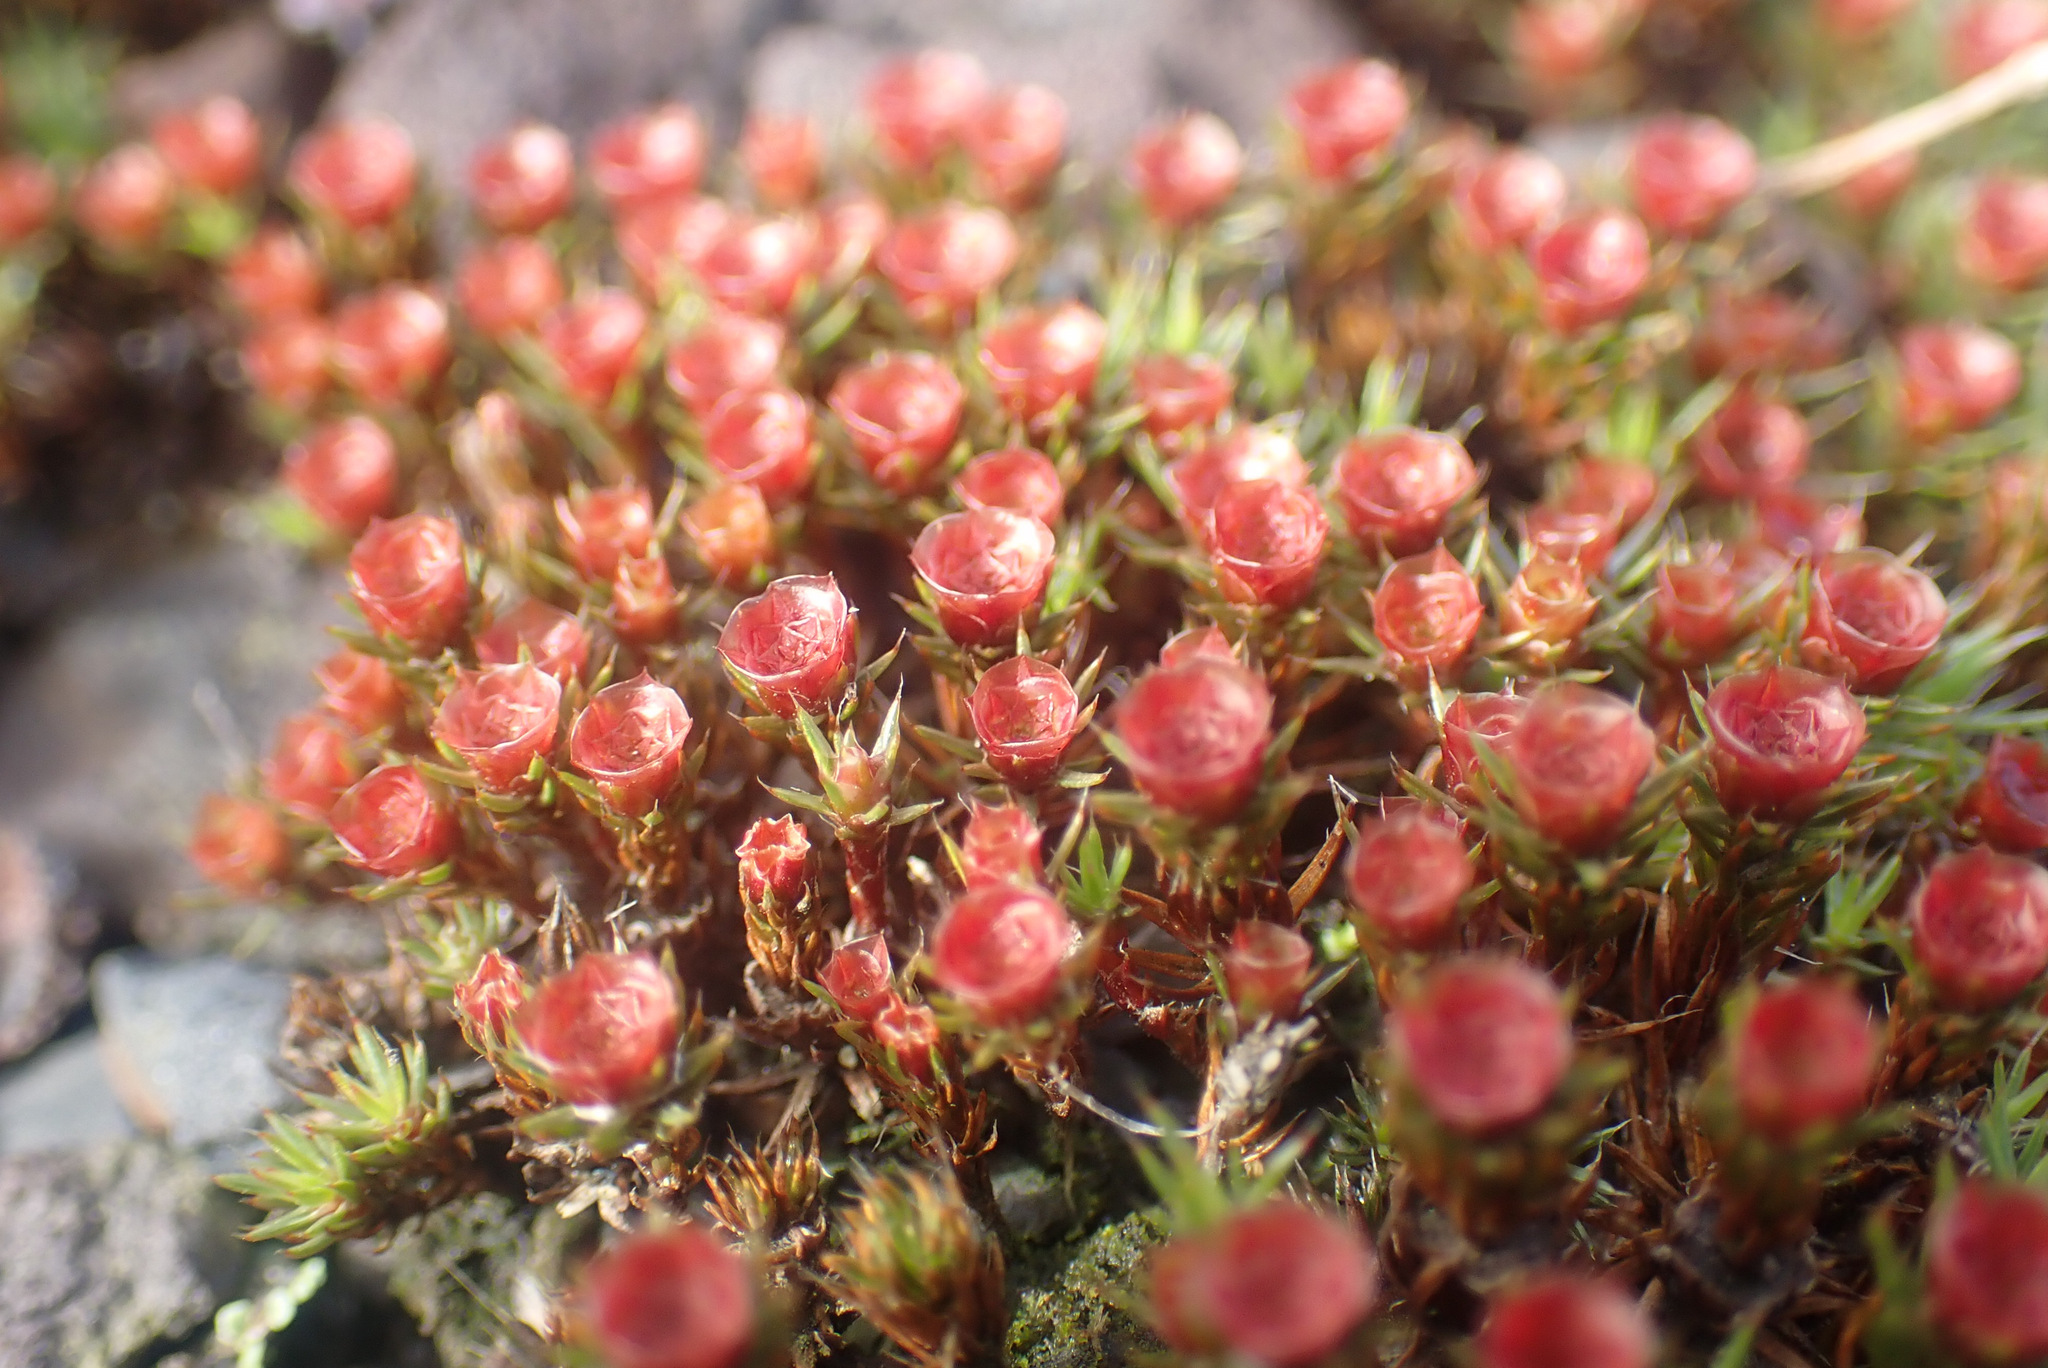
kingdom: Plantae
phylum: Bryophyta
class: Polytrichopsida
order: Polytrichales
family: Polytrichaceae
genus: Polytrichum
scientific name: Polytrichum piliferum
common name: Bristly haircap
